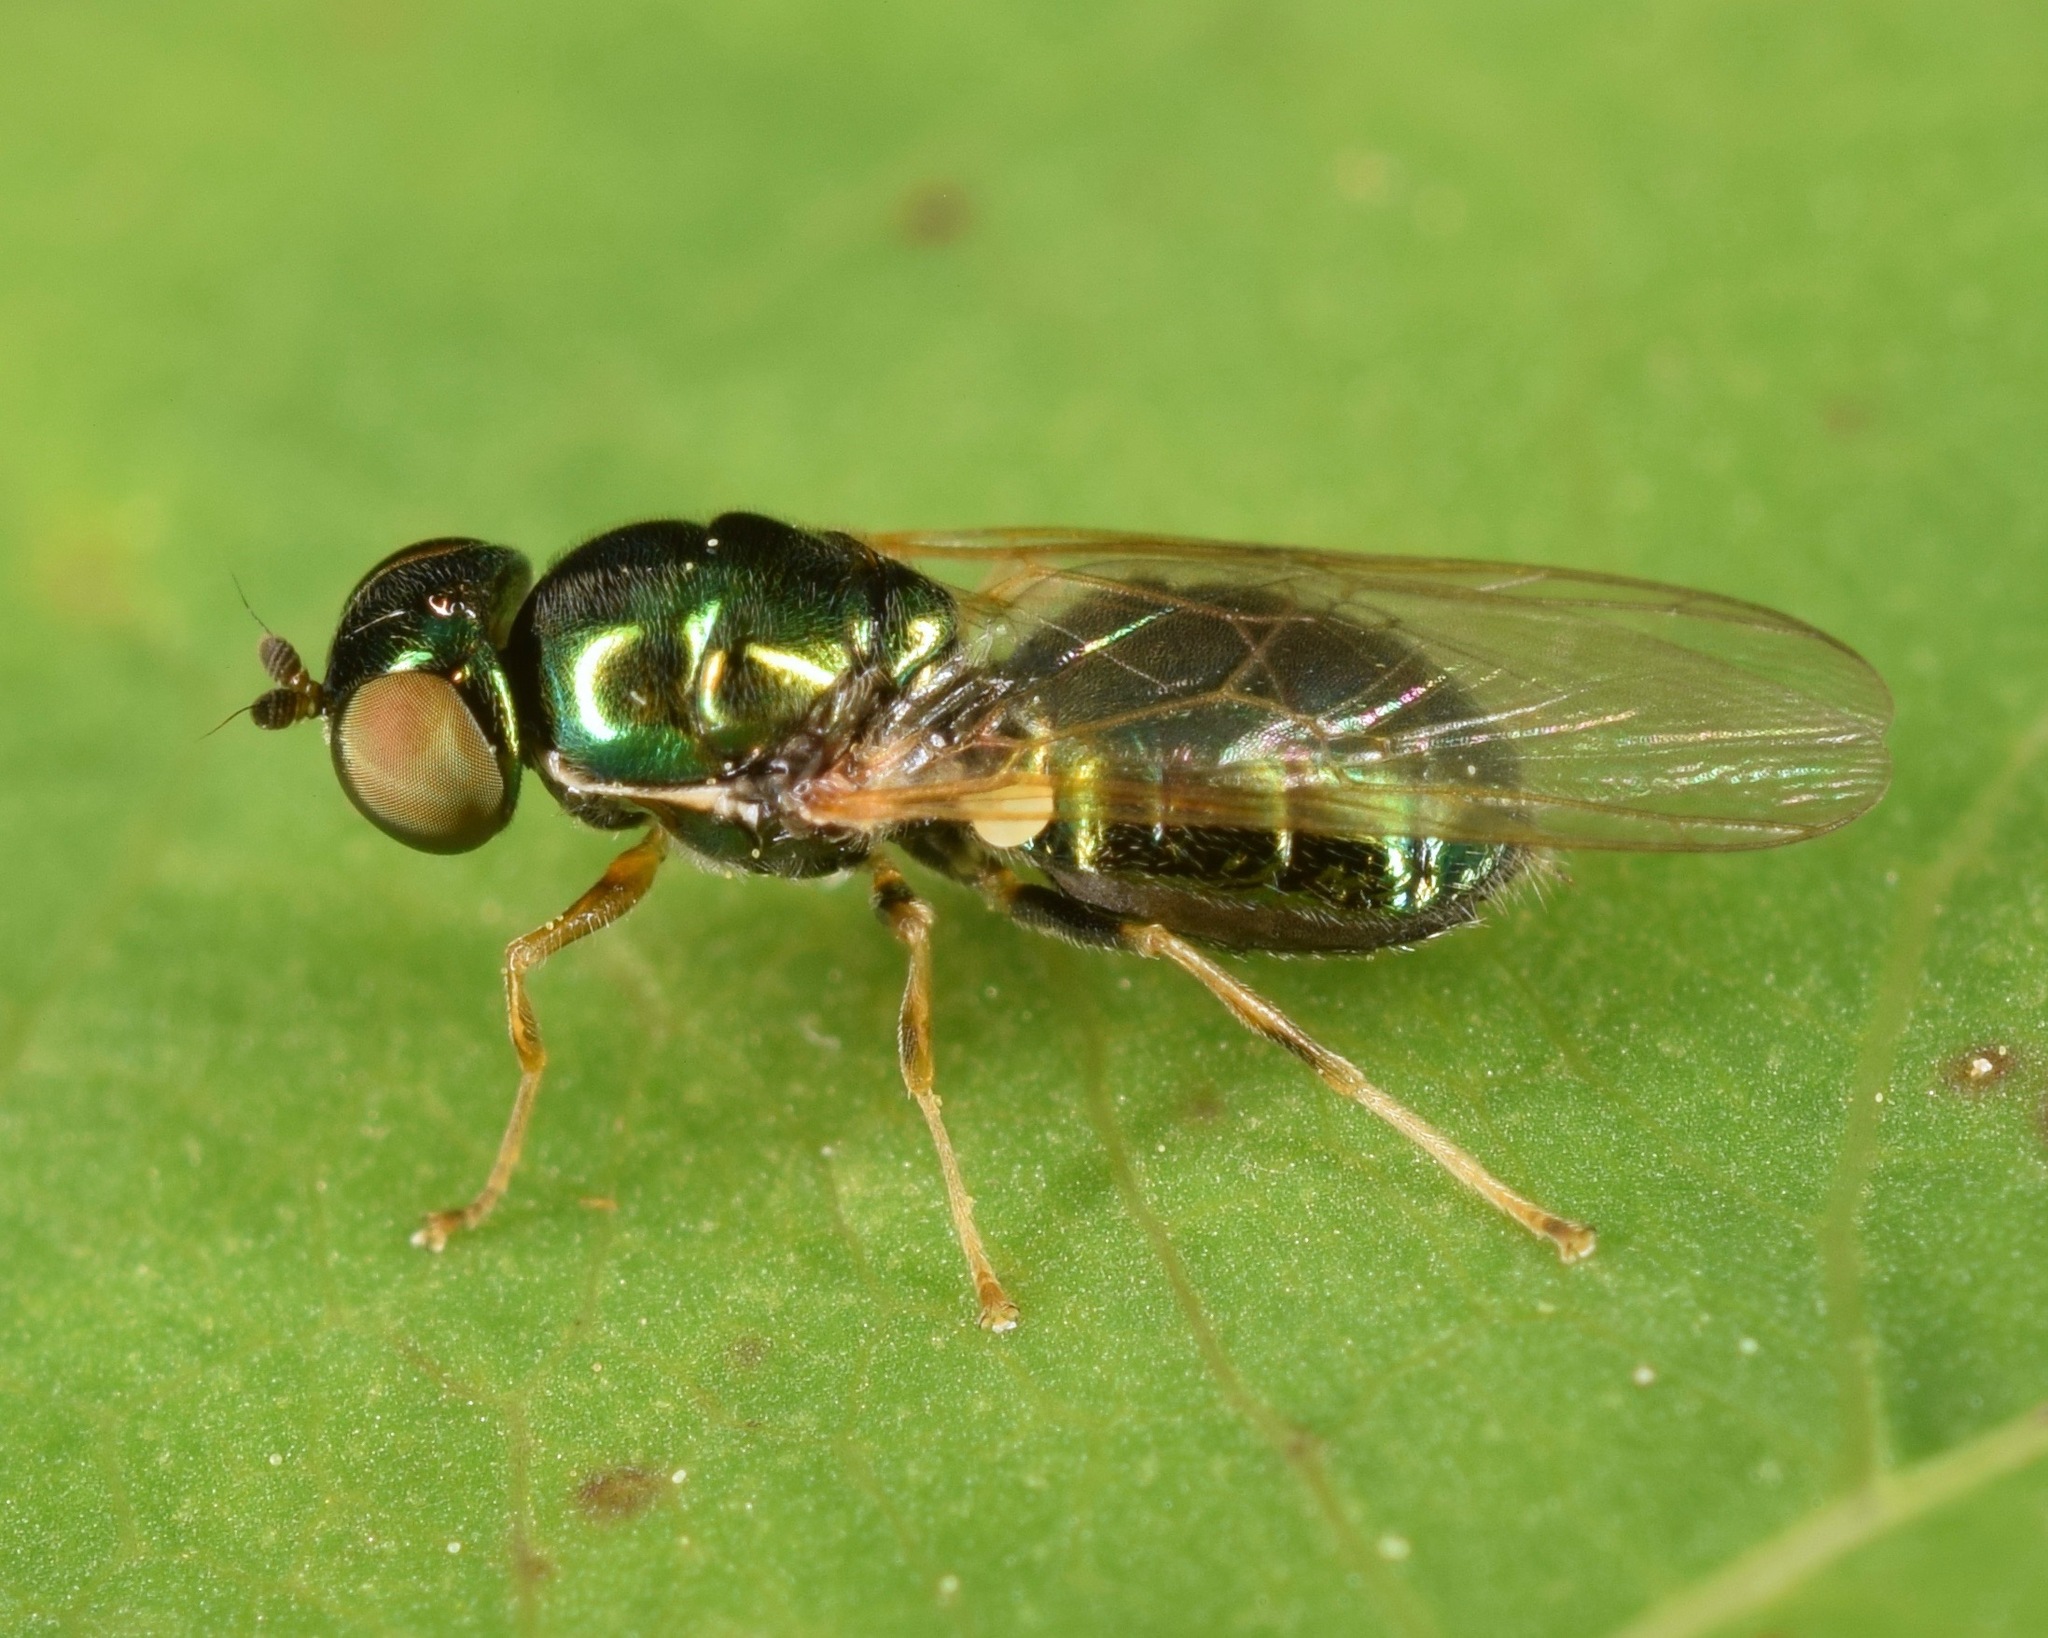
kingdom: Animalia
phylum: Arthropoda
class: Insecta
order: Diptera
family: Stratiomyidae
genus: Microchrysa
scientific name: Microchrysa flavicornis
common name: Soldier fly
